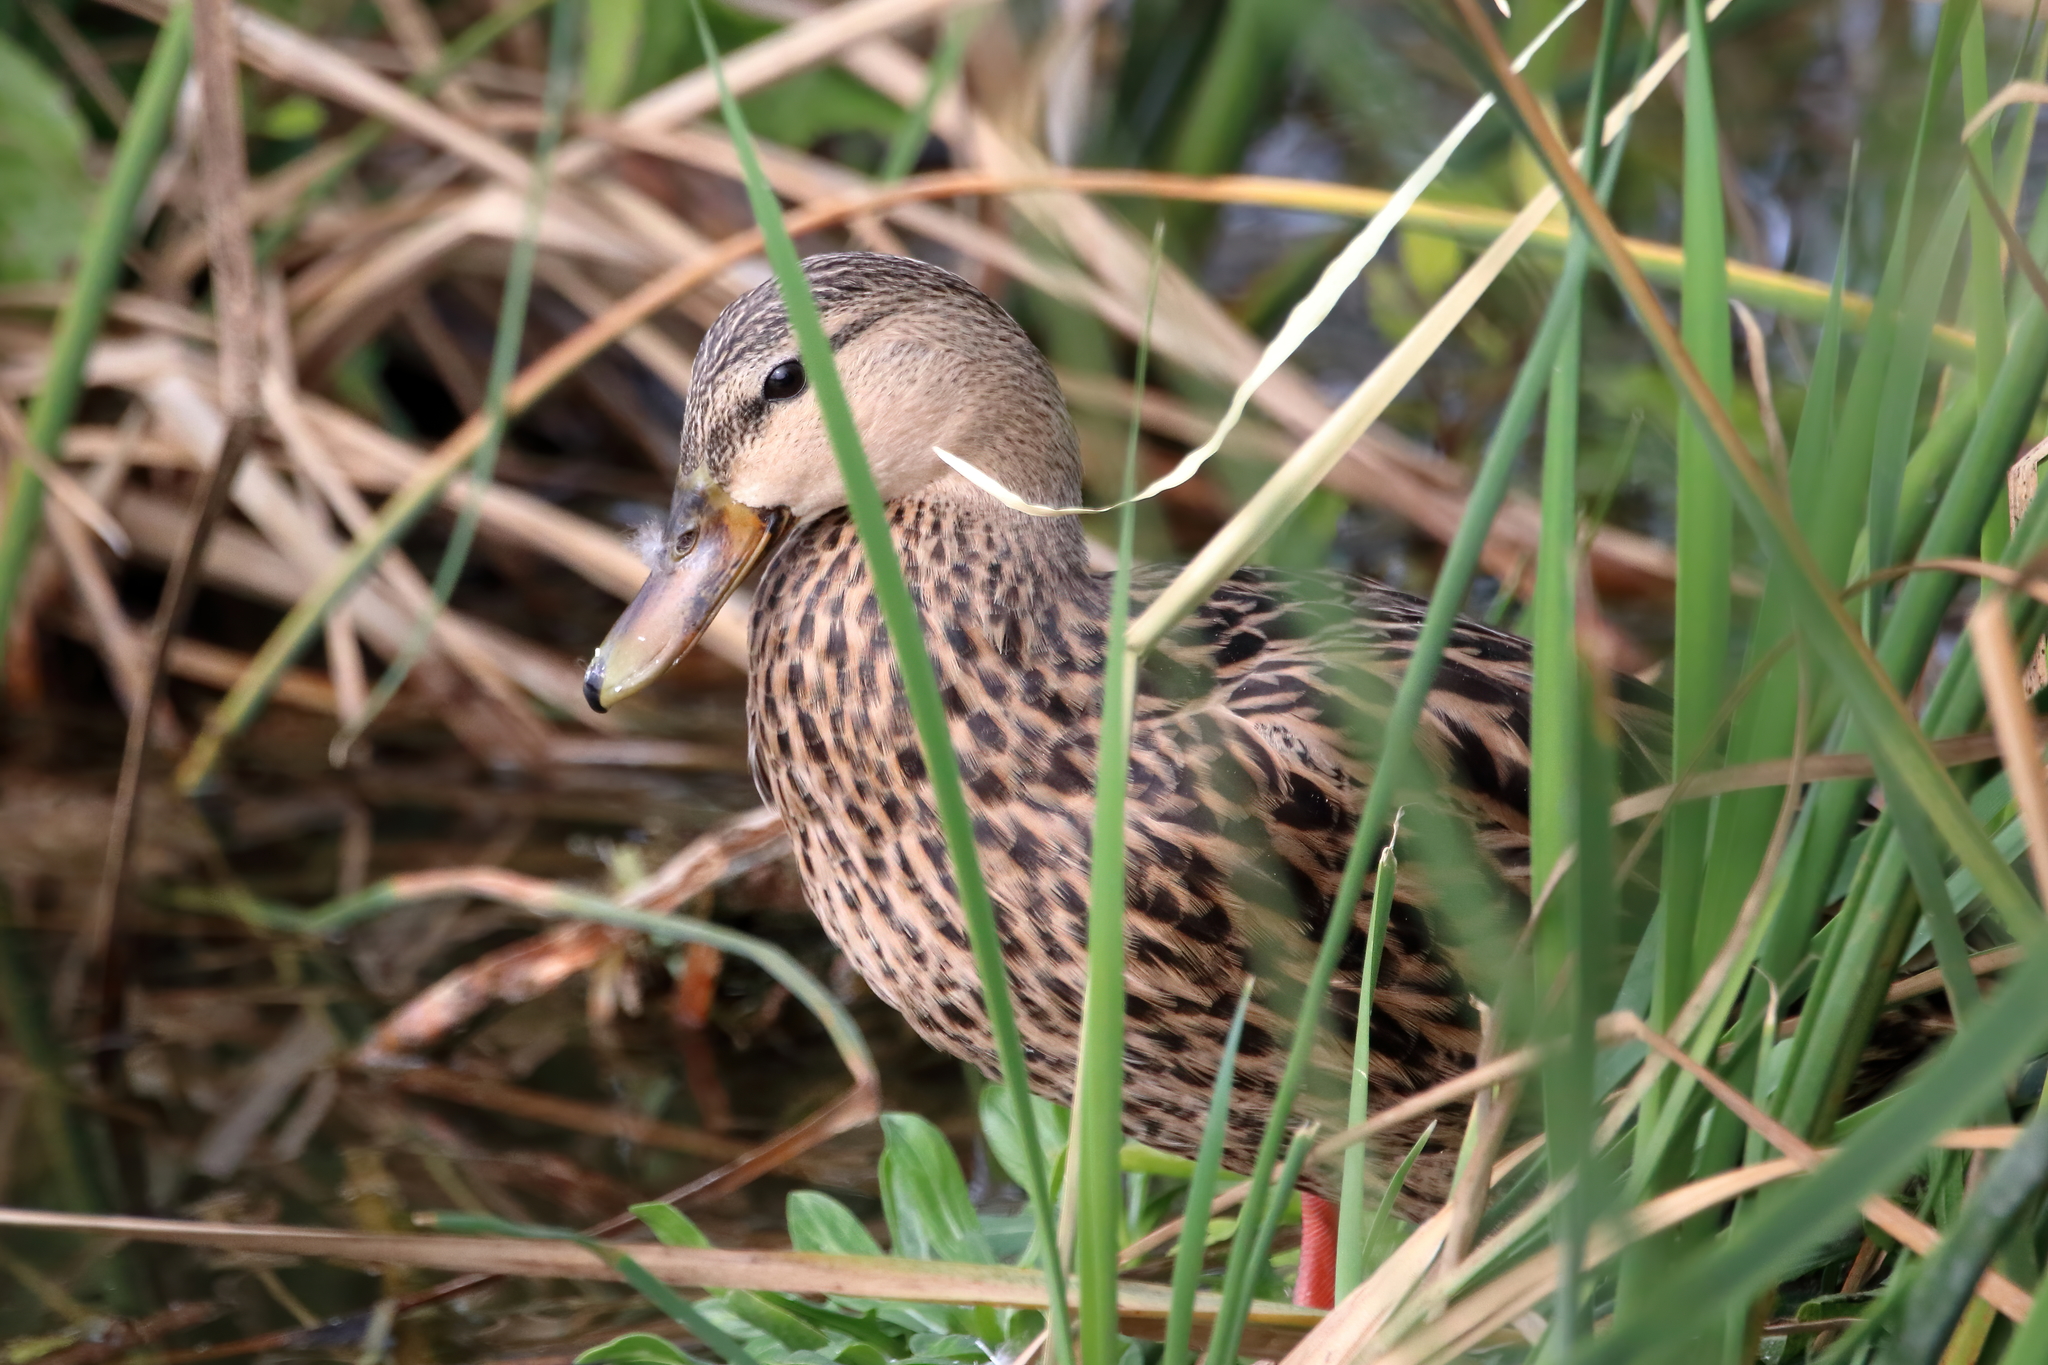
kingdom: Animalia
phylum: Chordata
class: Aves
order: Anseriformes
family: Anatidae
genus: Anas
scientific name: Anas fulvigula
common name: Mottled duck
